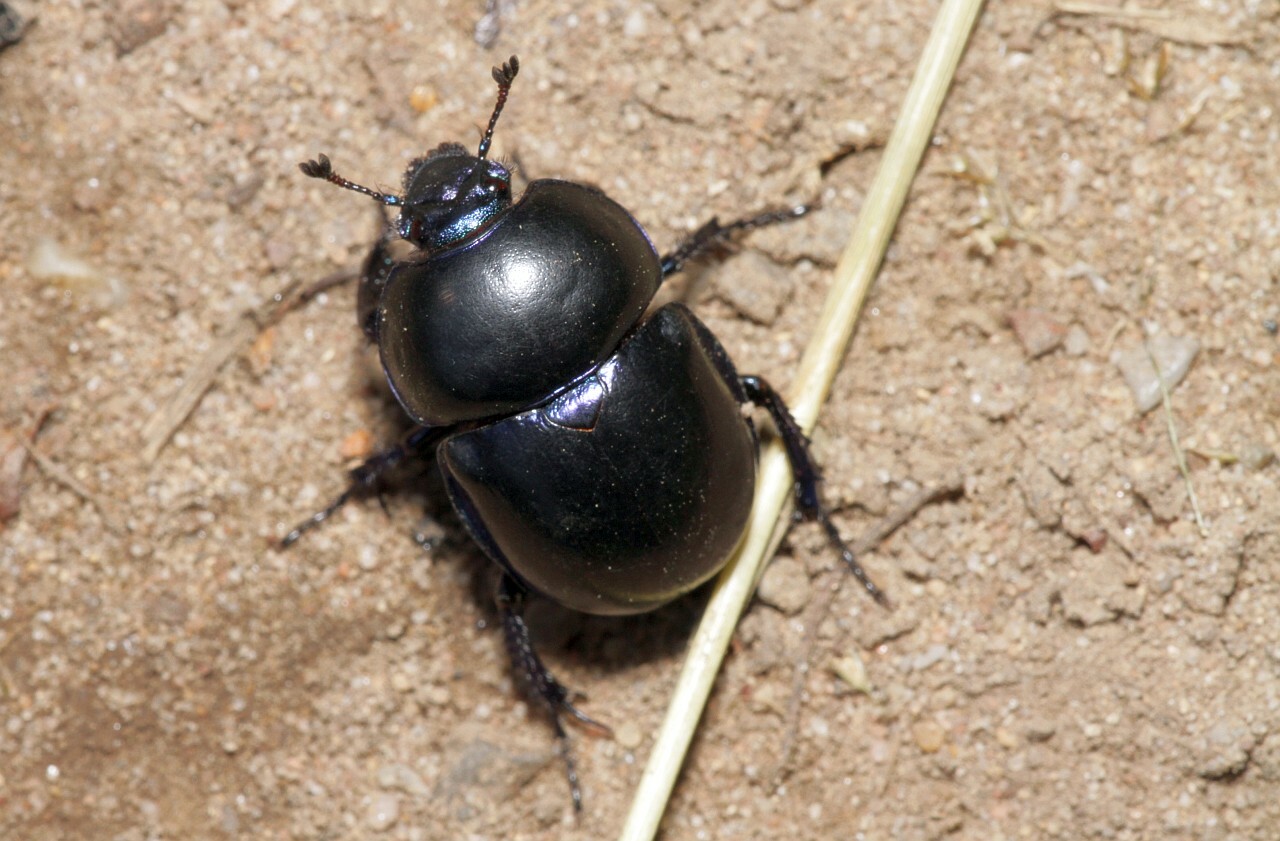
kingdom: Animalia
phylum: Arthropoda
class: Insecta
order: Coleoptera
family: Geotrupidae
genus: Trypocopris
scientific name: Trypocopris vernalis
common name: Spring dumbledor
